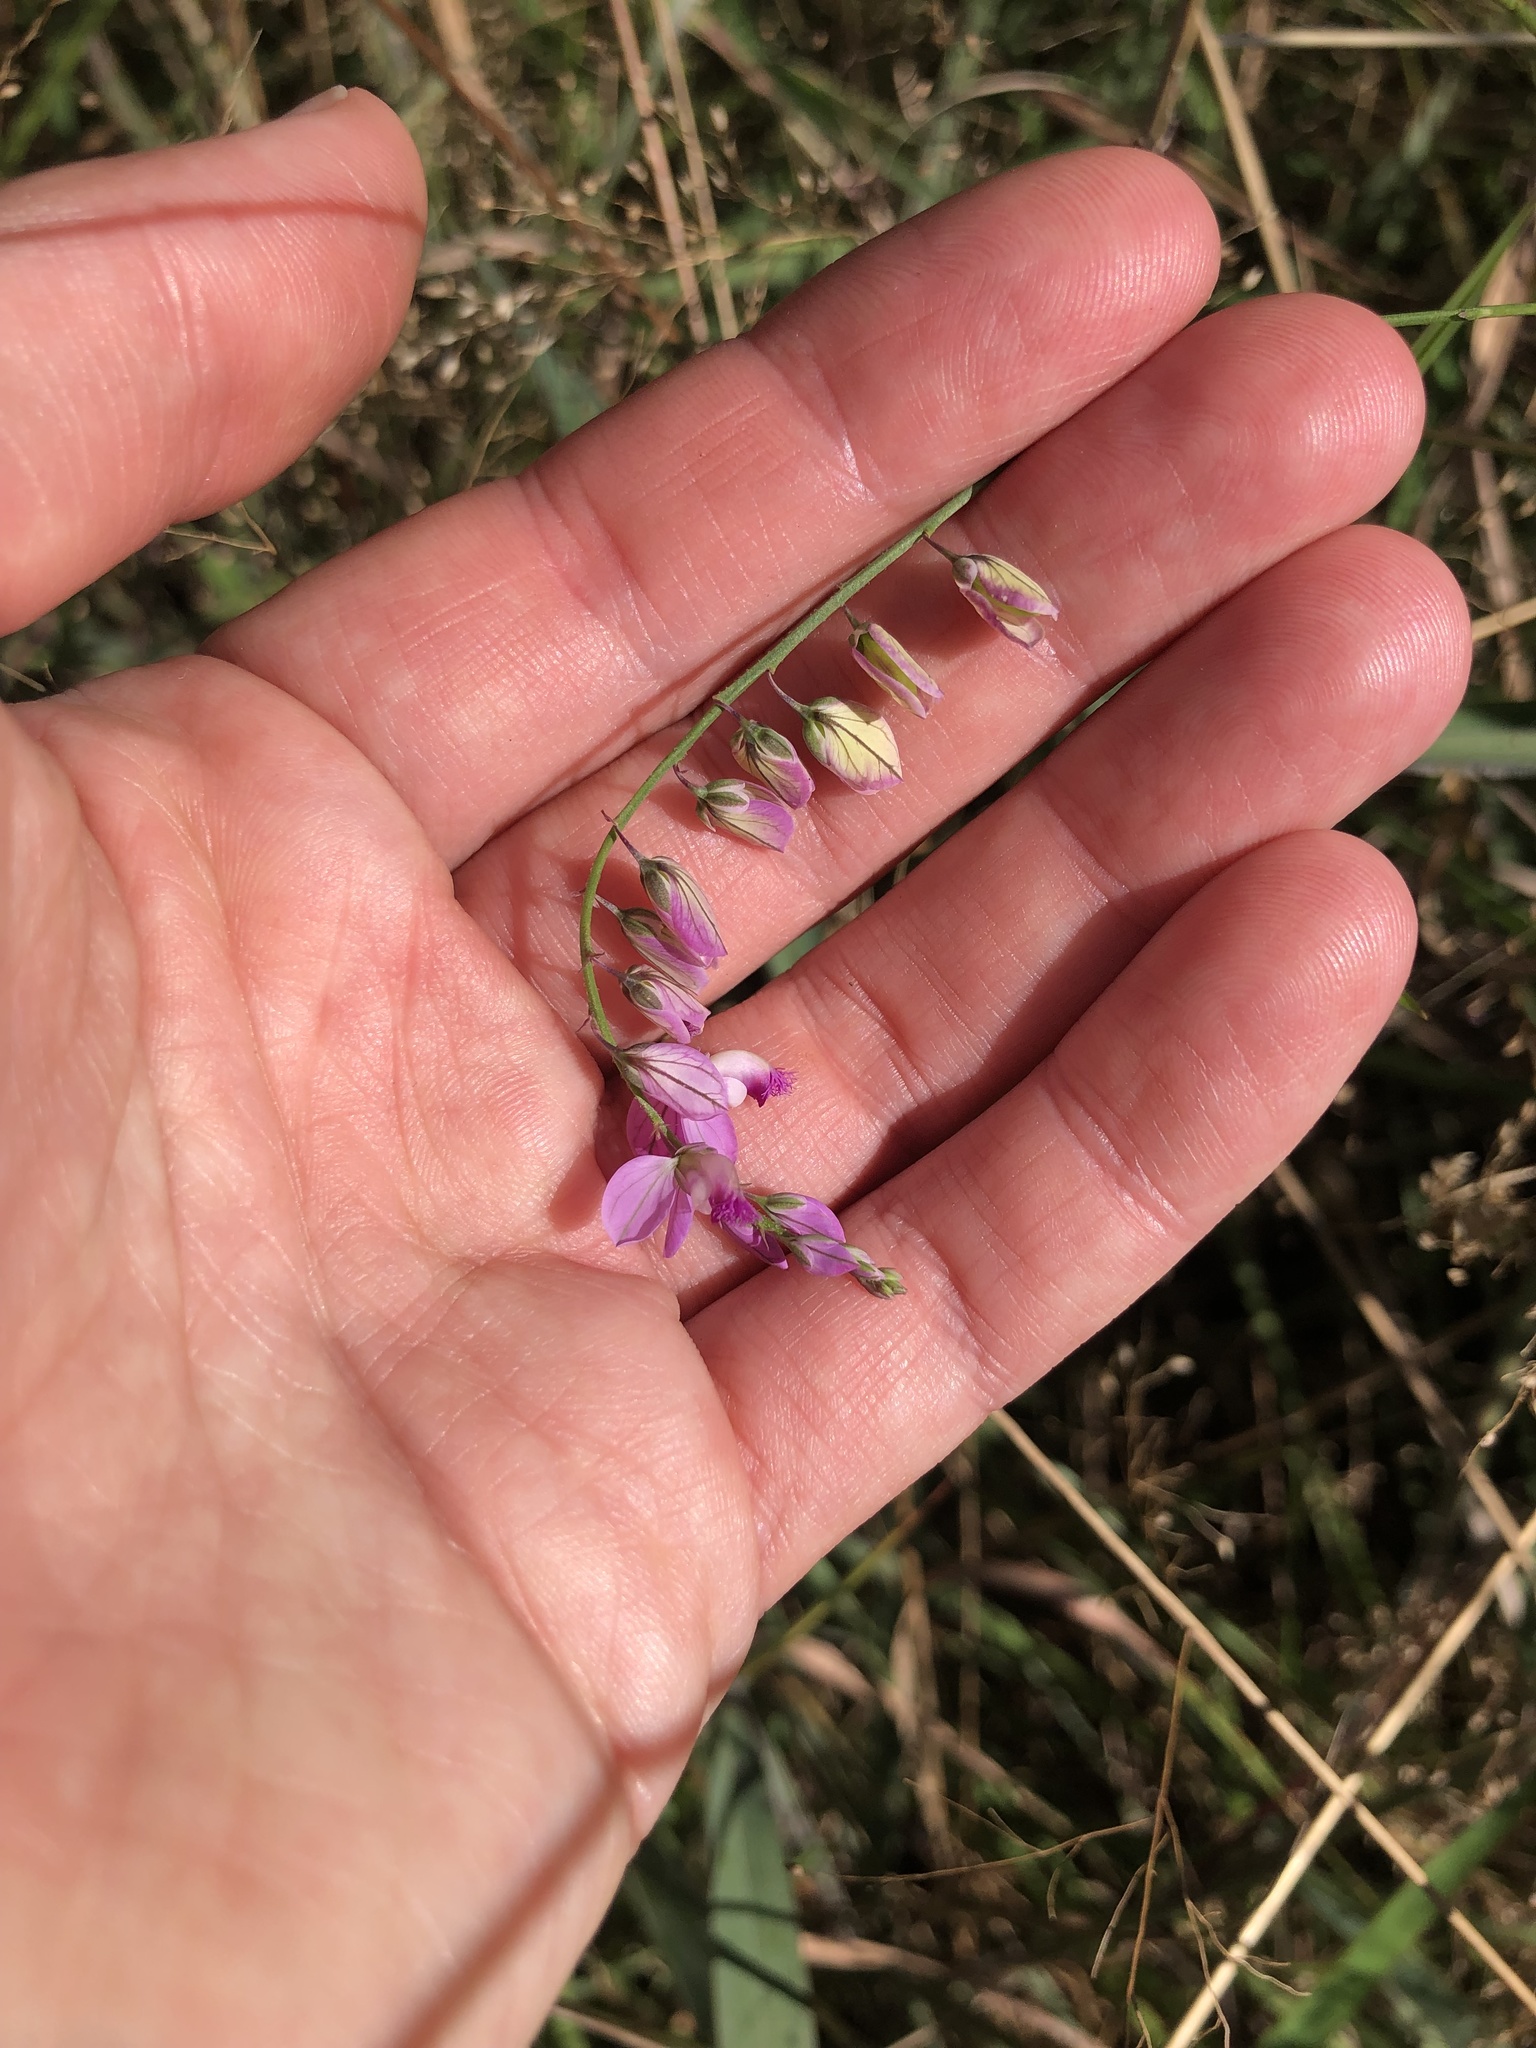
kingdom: Plantae
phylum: Tracheophyta
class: Magnoliopsida
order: Fabales
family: Polygalaceae
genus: Polygala
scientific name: Polygala hottentotta
